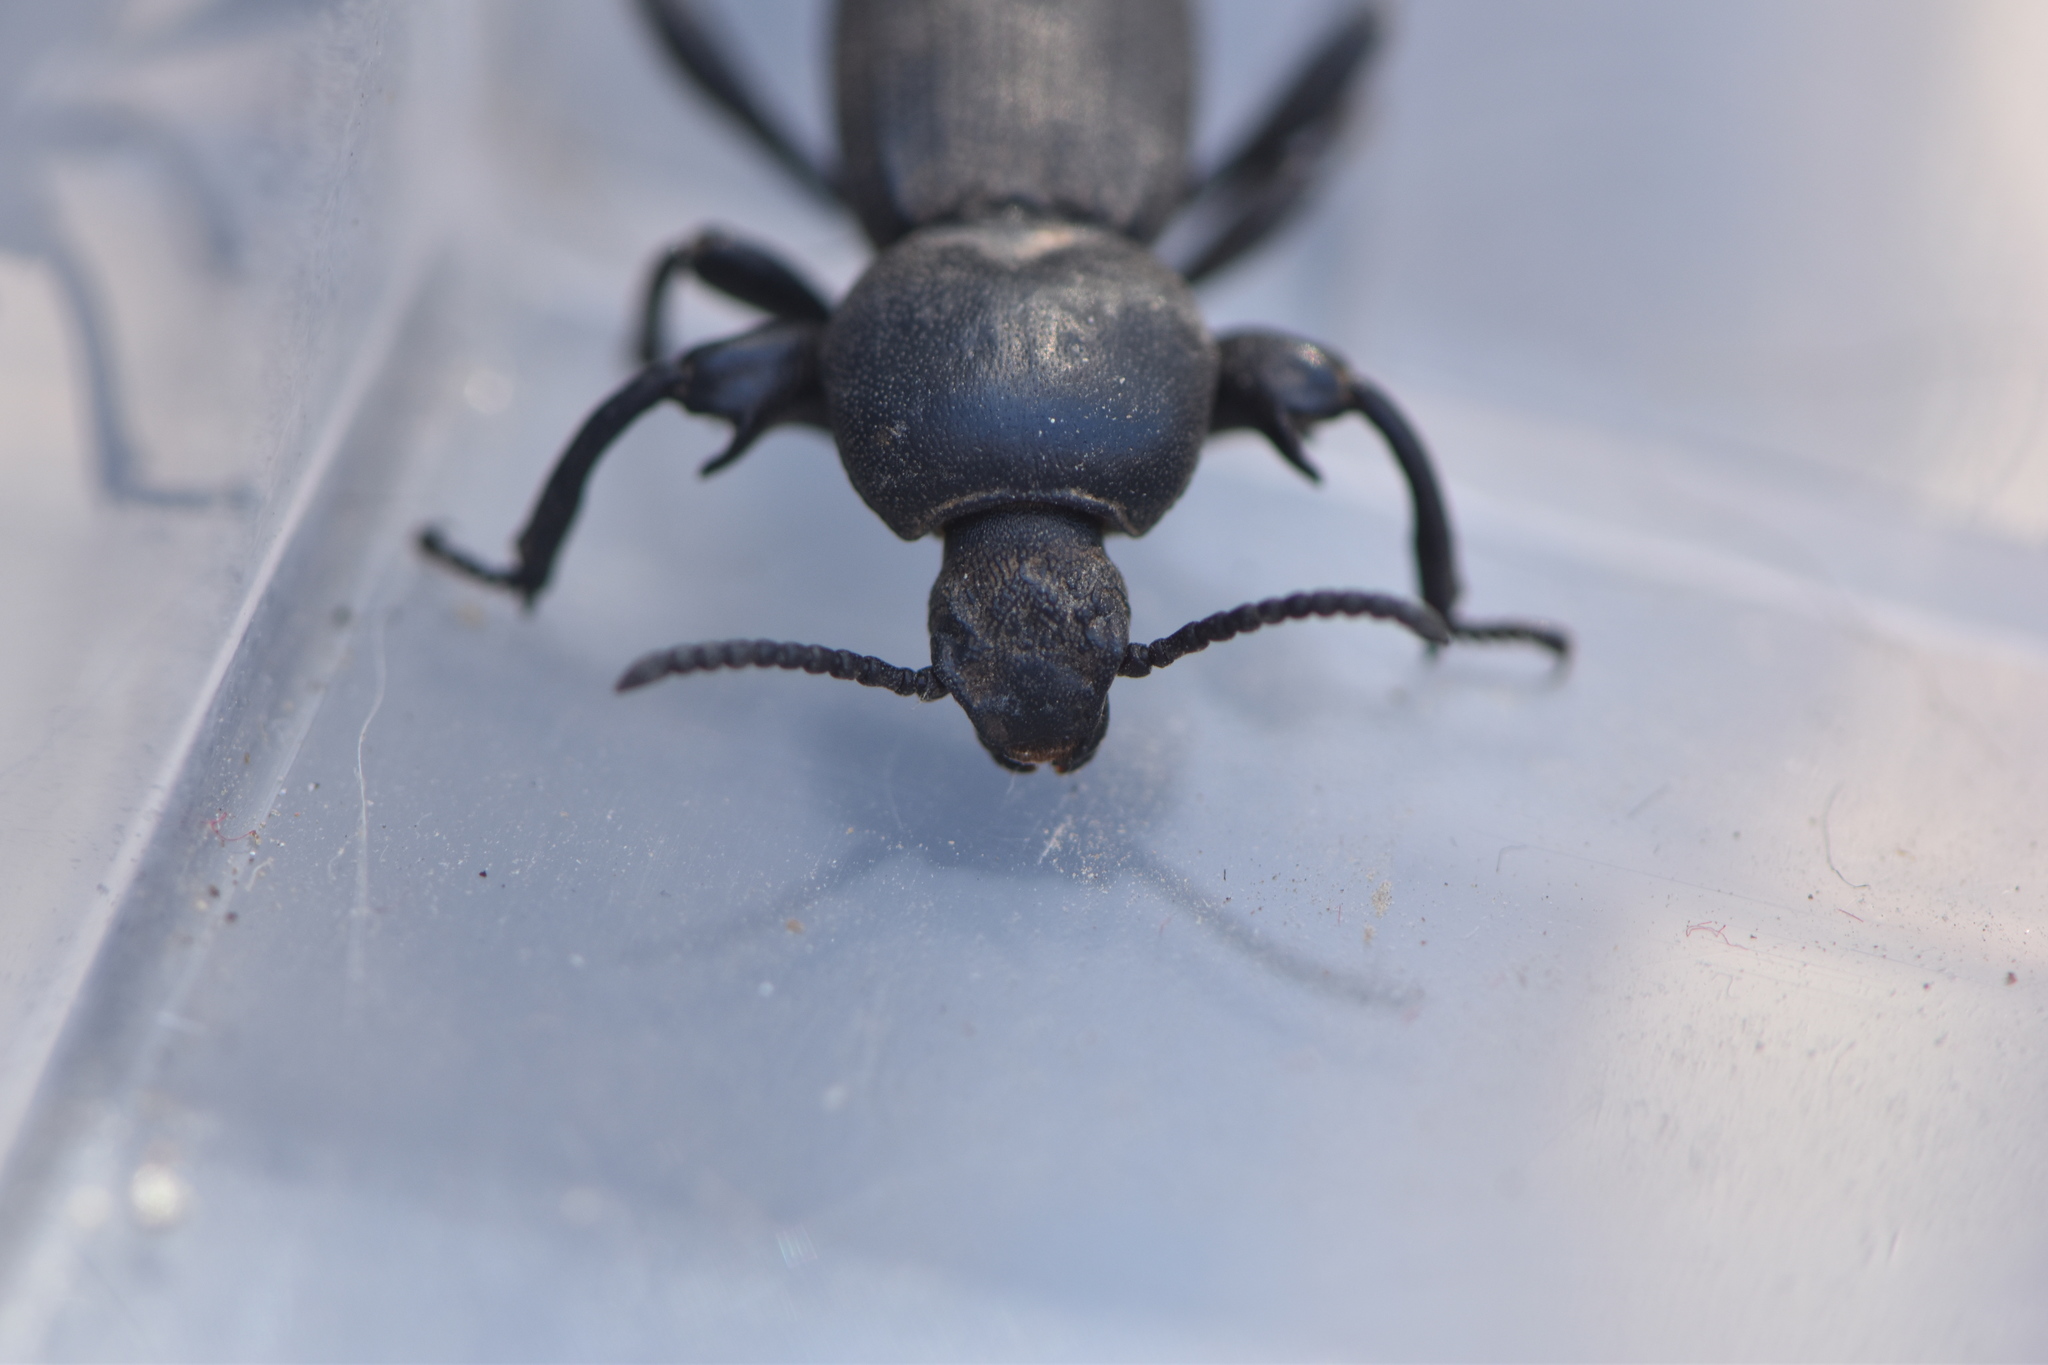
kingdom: Animalia
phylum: Arthropoda
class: Insecta
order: Coleoptera
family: Tenebrionidae
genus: Scaurus
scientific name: Scaurus uncinus
